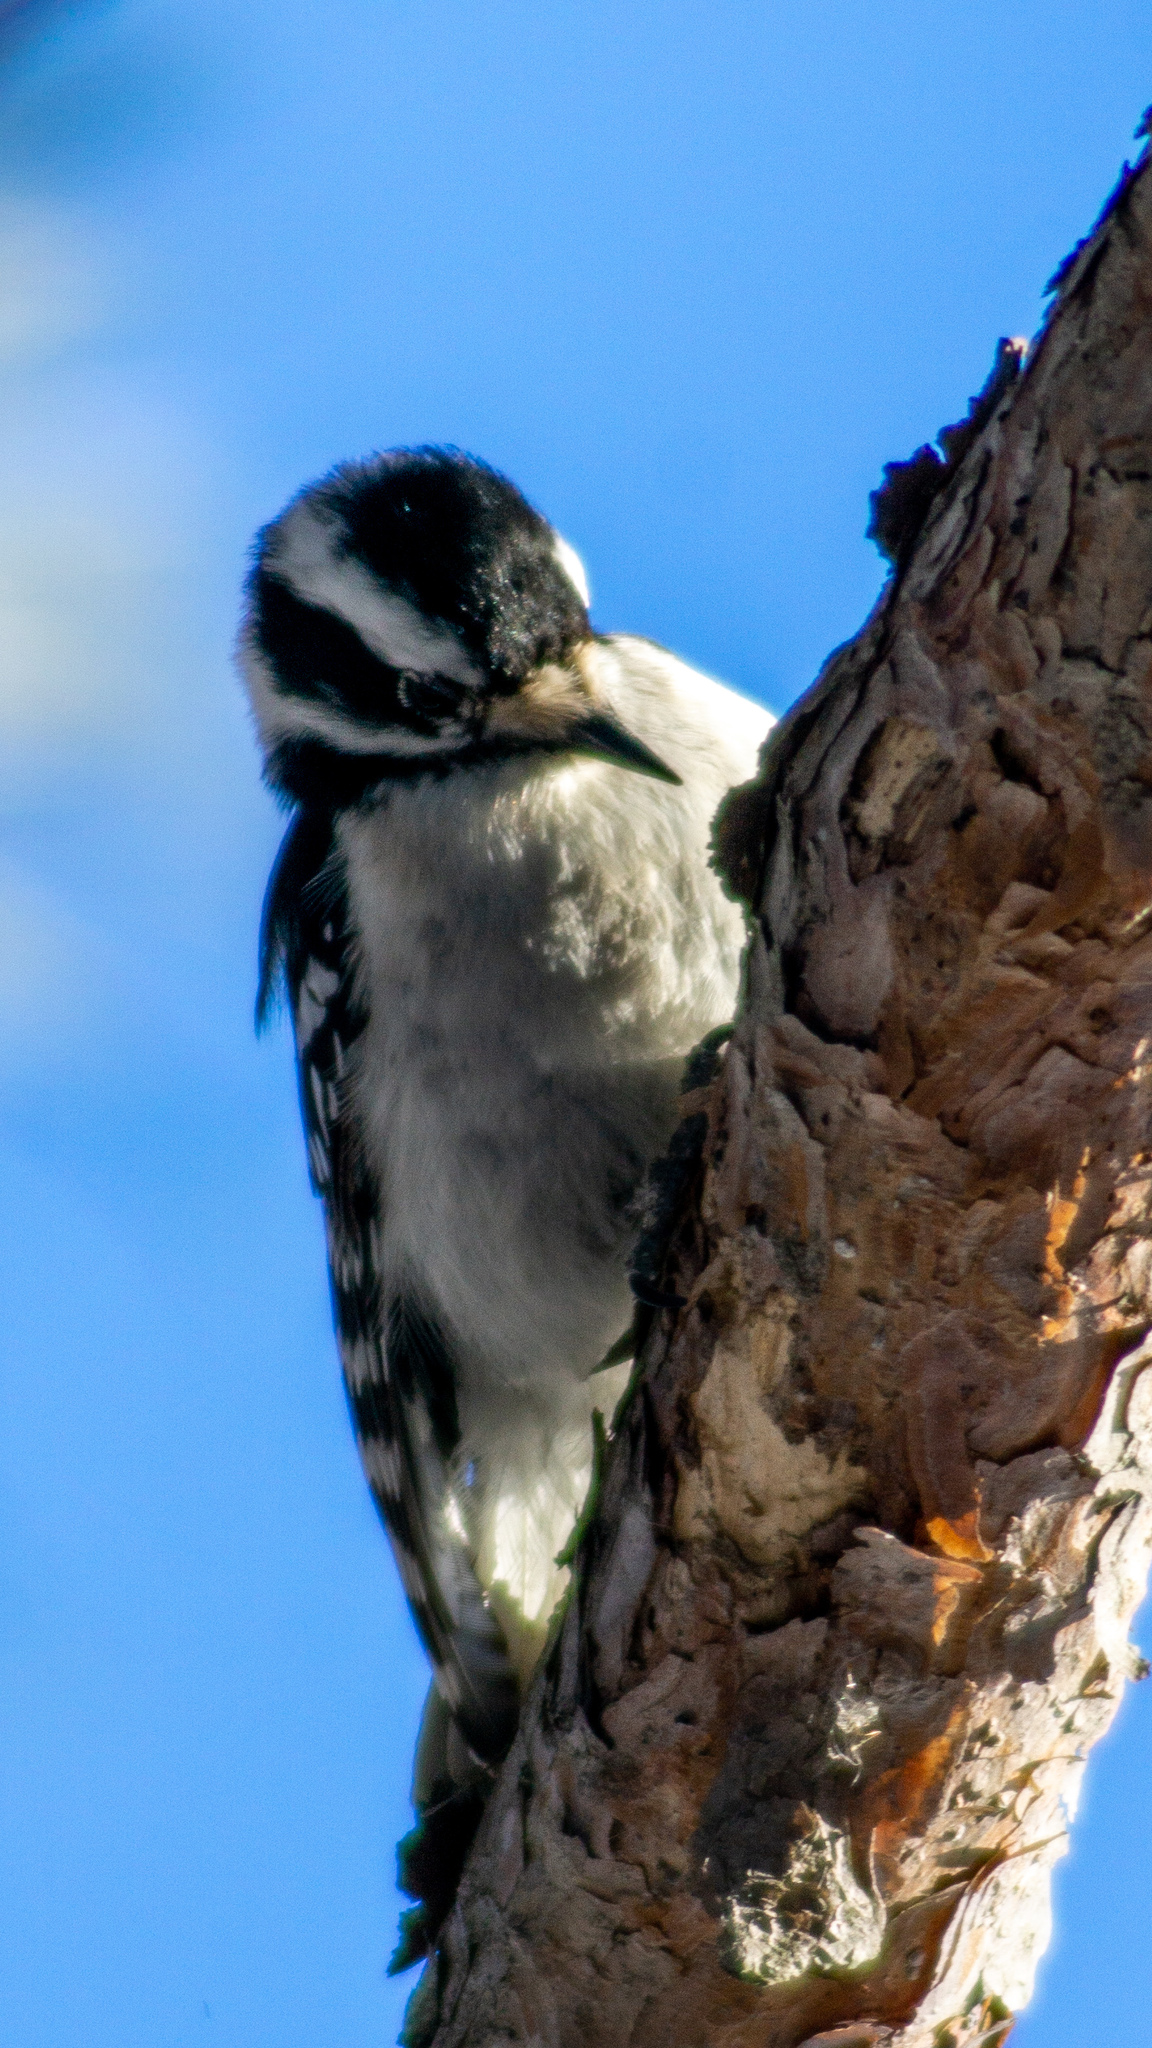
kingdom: Animalia
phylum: Chordata
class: Aves
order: Piciformes
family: Picidae
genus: Dryobates
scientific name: Dryobates pubescens
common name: Downy woodpecker
